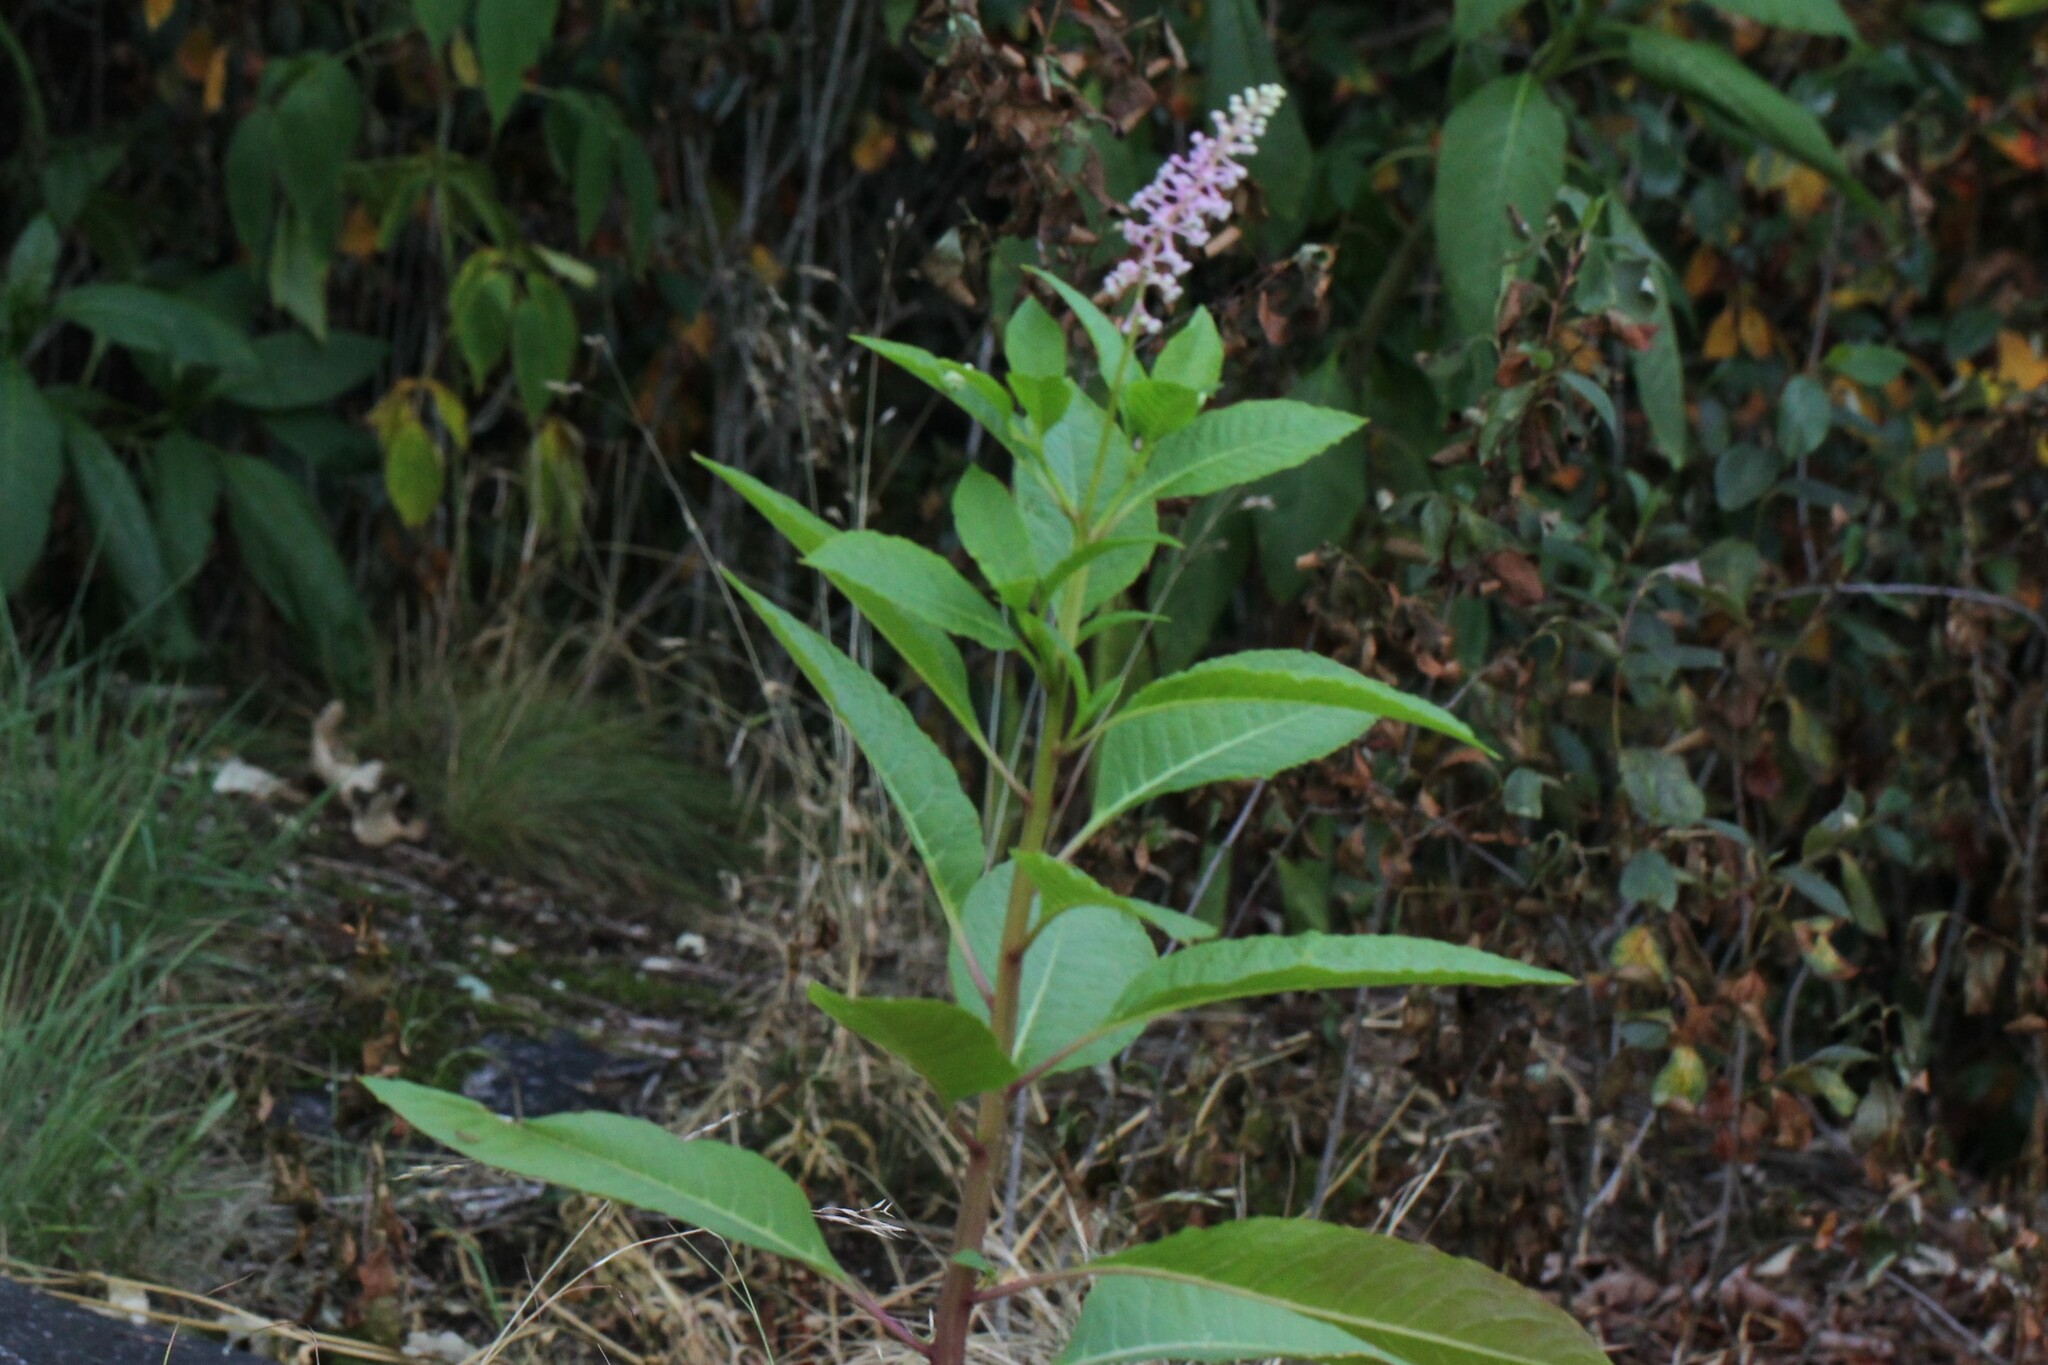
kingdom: Plantae
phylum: Tracheophyta
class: Magnoliopsida
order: Caryophyllales
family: Phytolaccaceae
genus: Phytolacca
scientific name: Phytolacca americana
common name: American pokeweed
